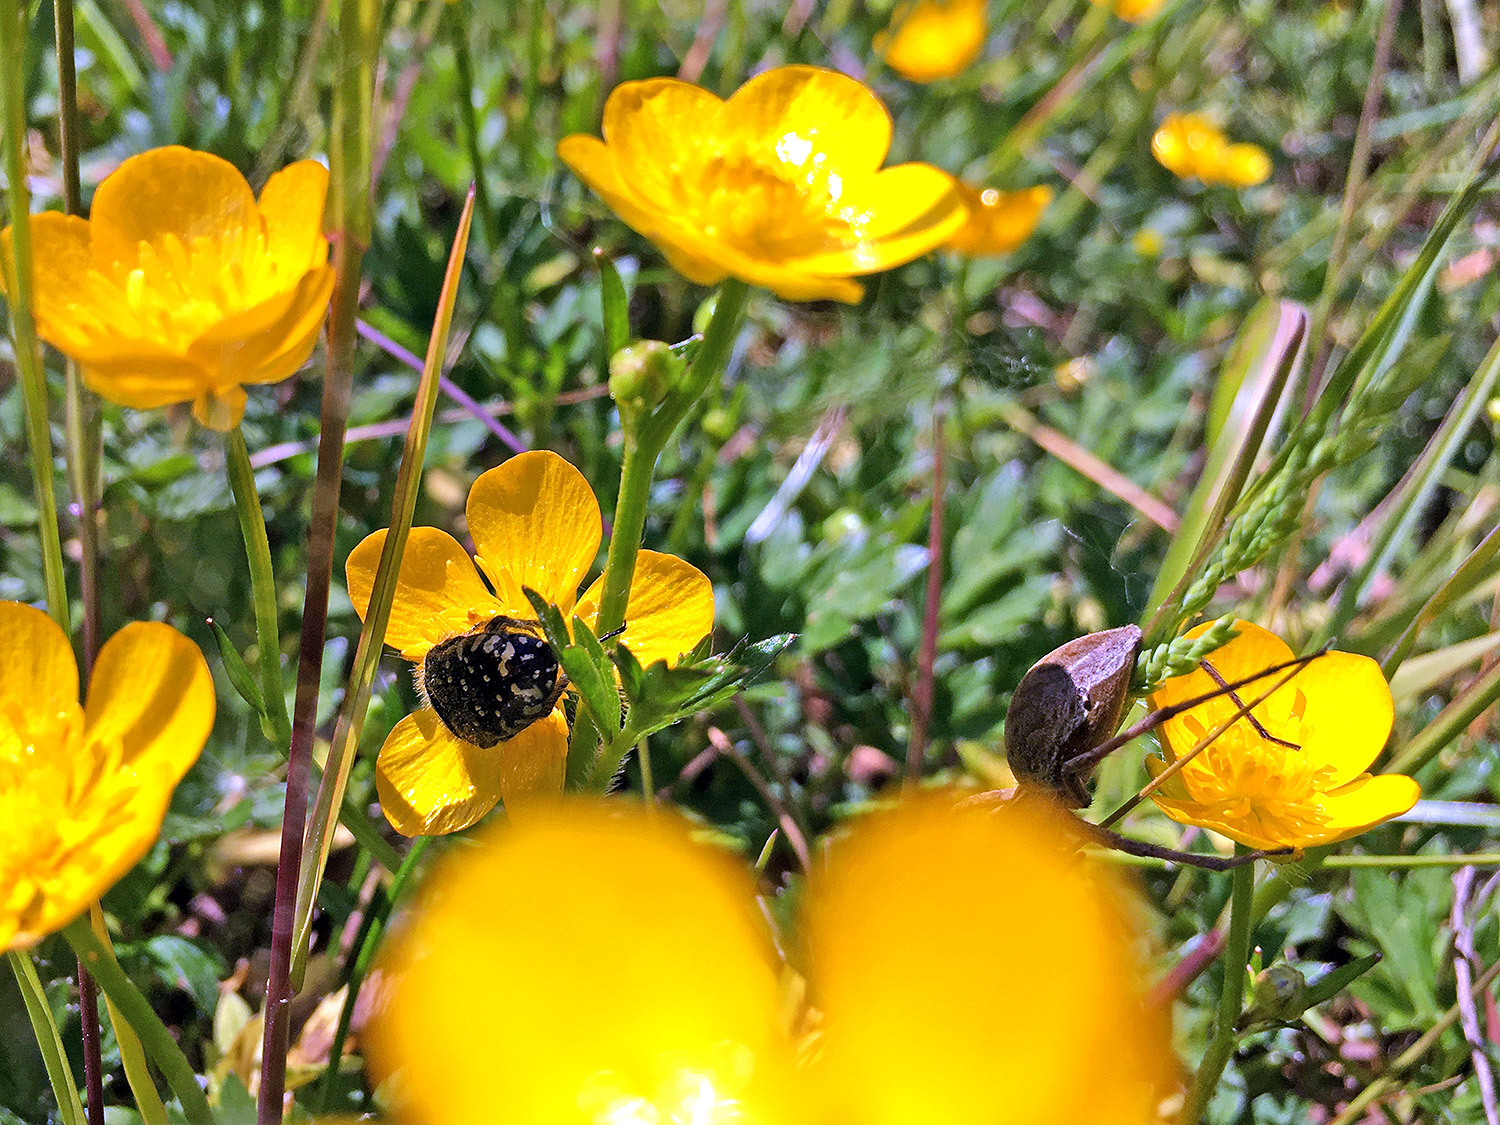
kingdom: Animalia
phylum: Arthropoda
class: Insecta
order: Coleoptera
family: Scarabaeidae
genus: Oxythyrea
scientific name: Oxythyrea funesta
